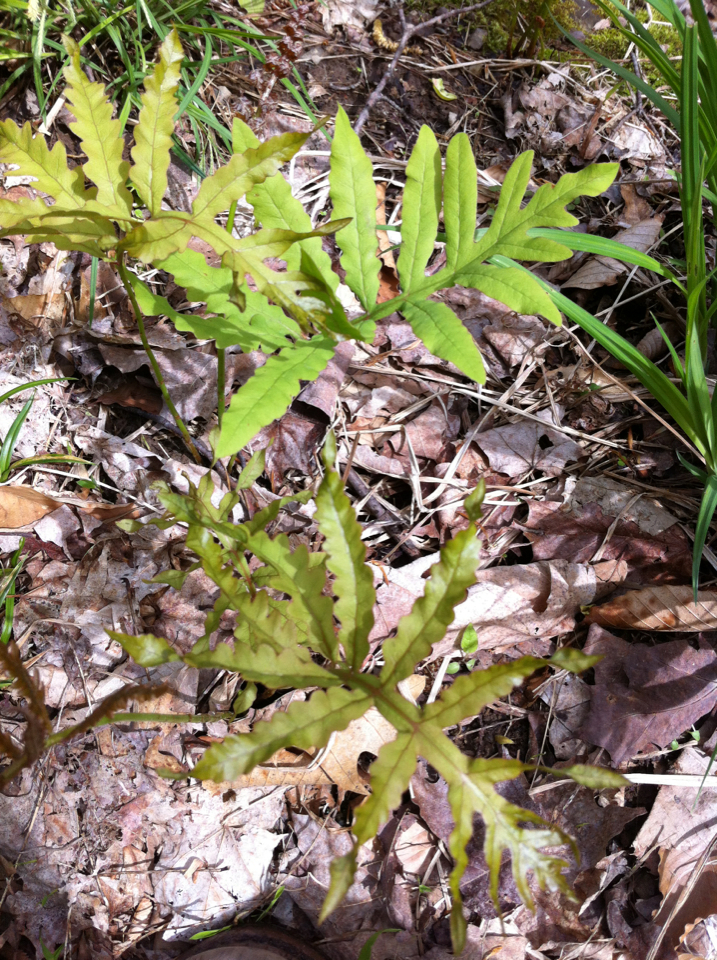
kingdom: Plantae
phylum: Tracheophyta
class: Polypodiopsida
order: Polypodiales
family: Onocleaceae
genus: Onoclea
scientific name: Onoclea sensibilis
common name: Sensitive fern
